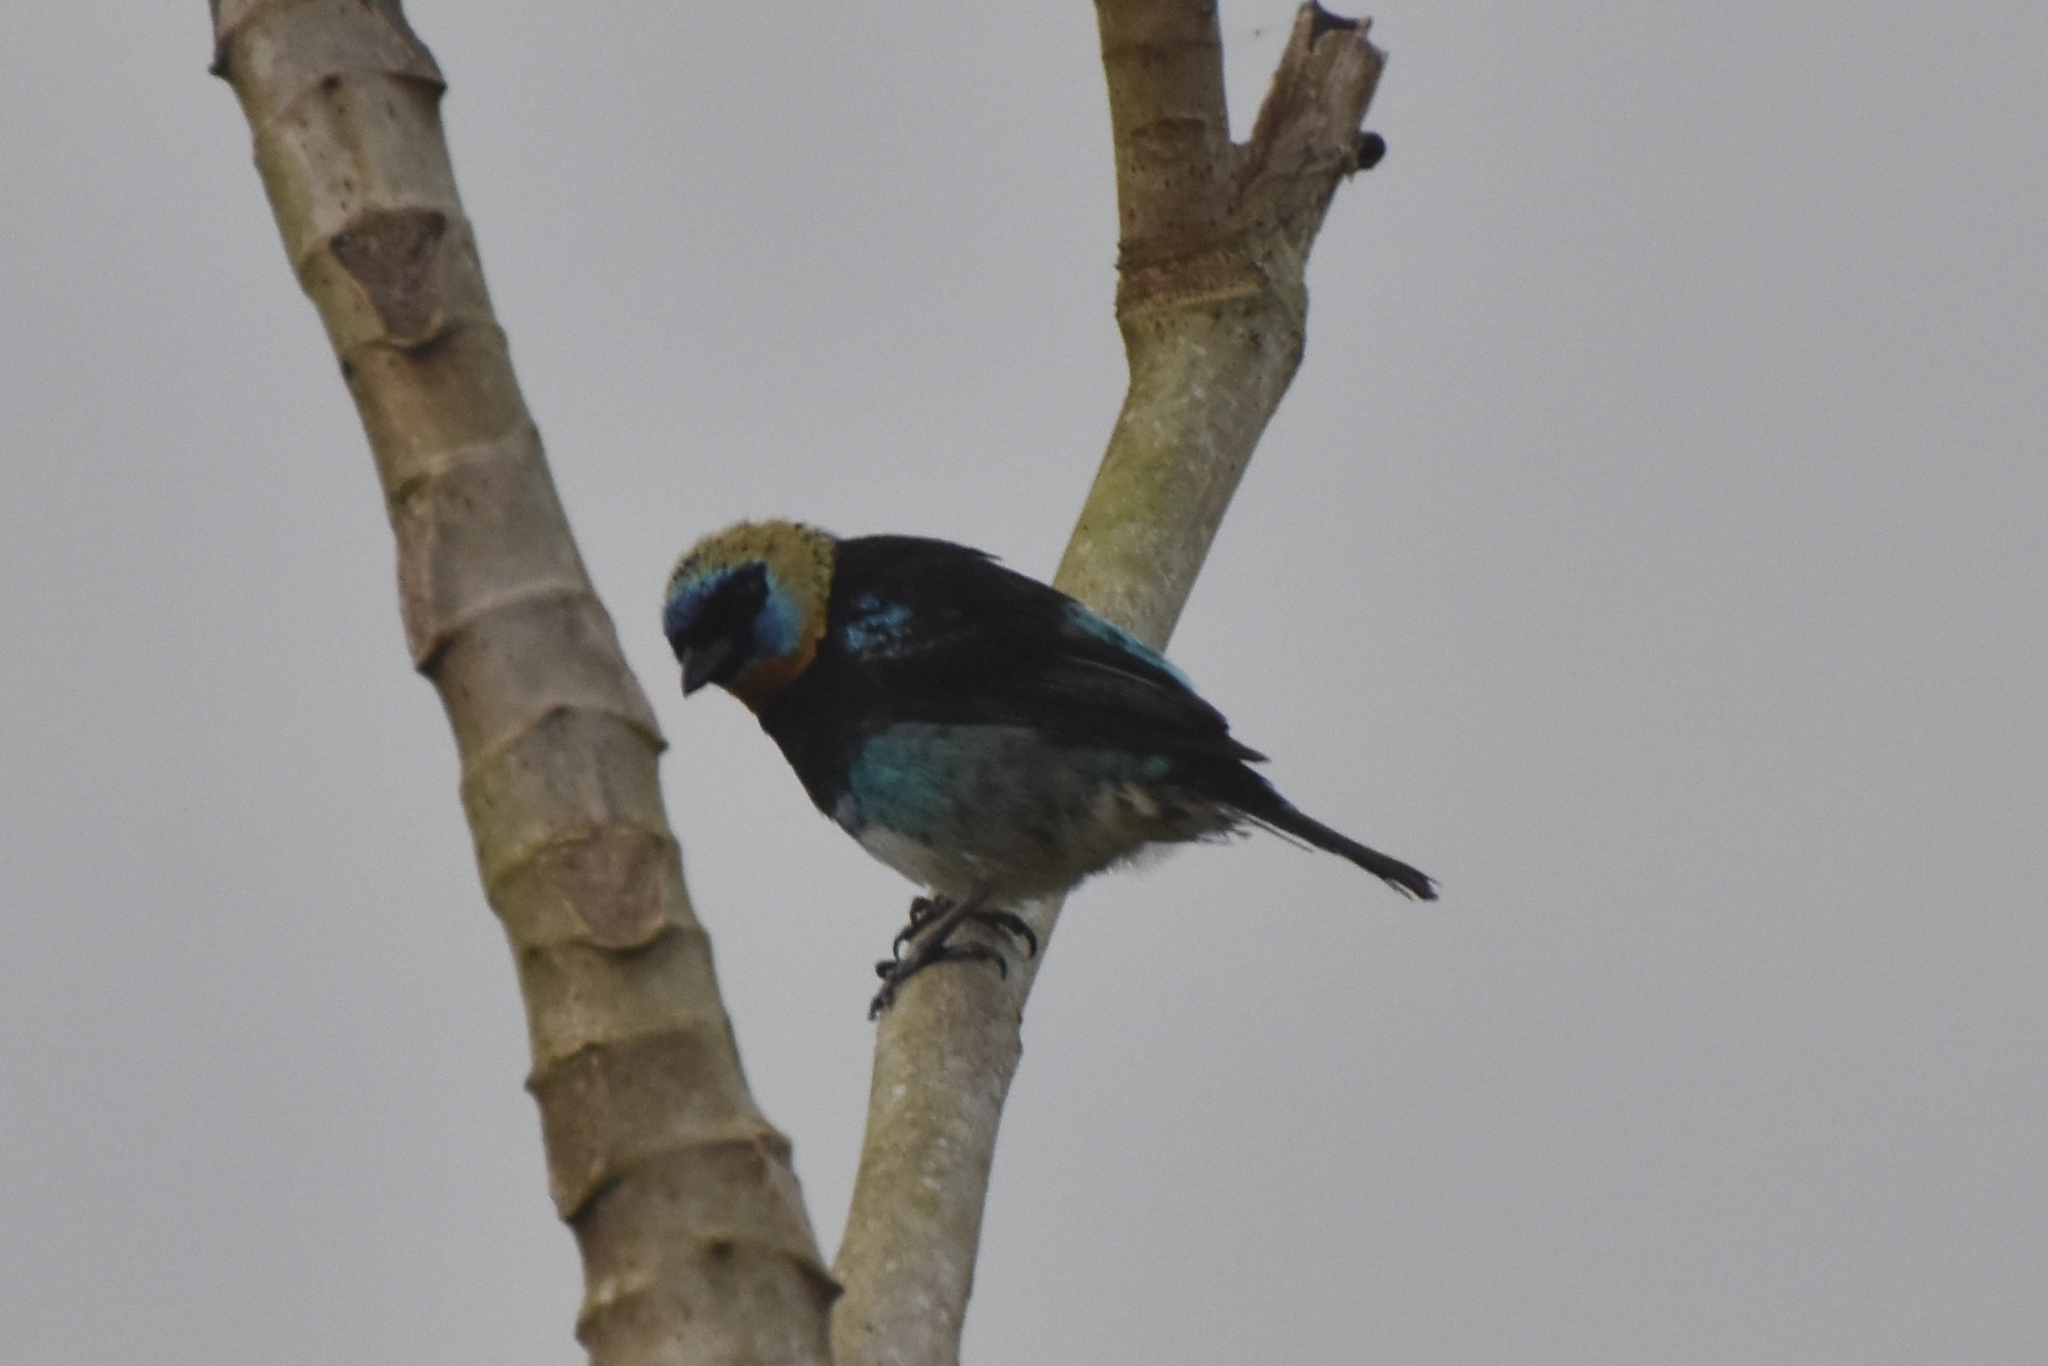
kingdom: Animalia
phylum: Chordata
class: Aves
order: Passeriformes
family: Thraupidae
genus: Stilpnia
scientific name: Stilpnia larvata
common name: Golden-hooded tanager
